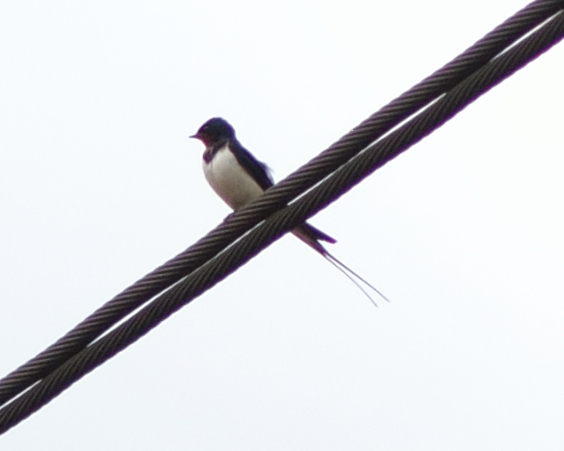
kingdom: Animalia
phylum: Chordata
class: Aves
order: Passeriformes
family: Hirundinidae
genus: Hirundo
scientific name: Hirundo rustica
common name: Barn swallow
